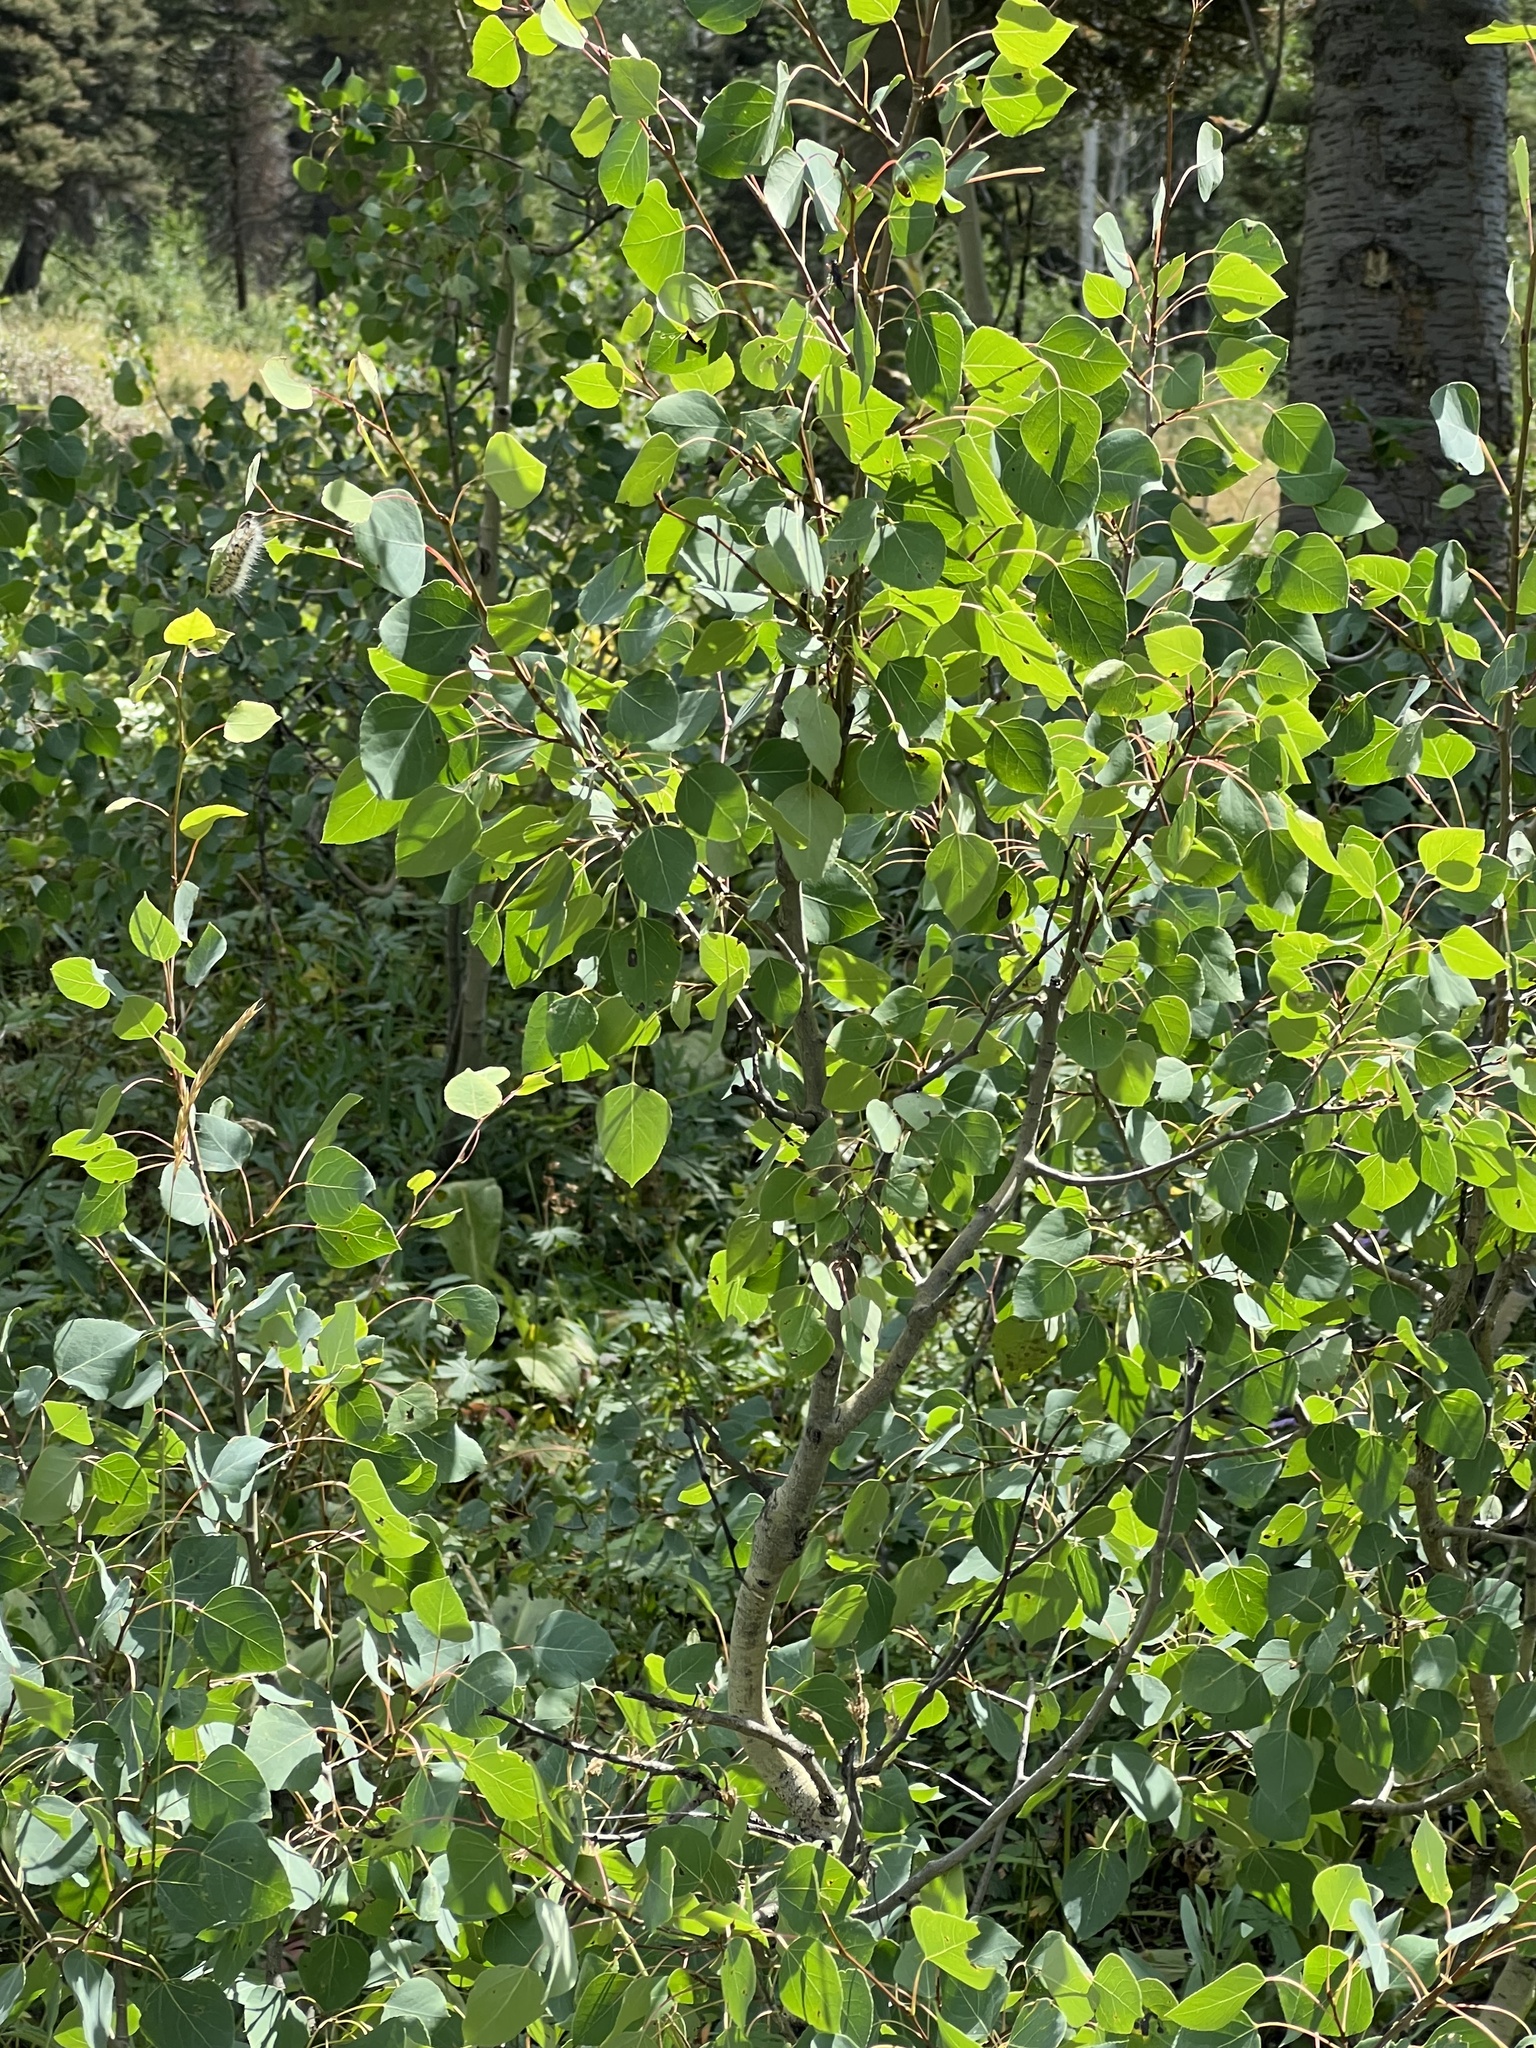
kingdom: Plantae
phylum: Tracheophyta
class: Magnoliopsida
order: Malpighiales
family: Salicaceae
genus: Populus
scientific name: Populus tremuloides
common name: Quaking aspen
